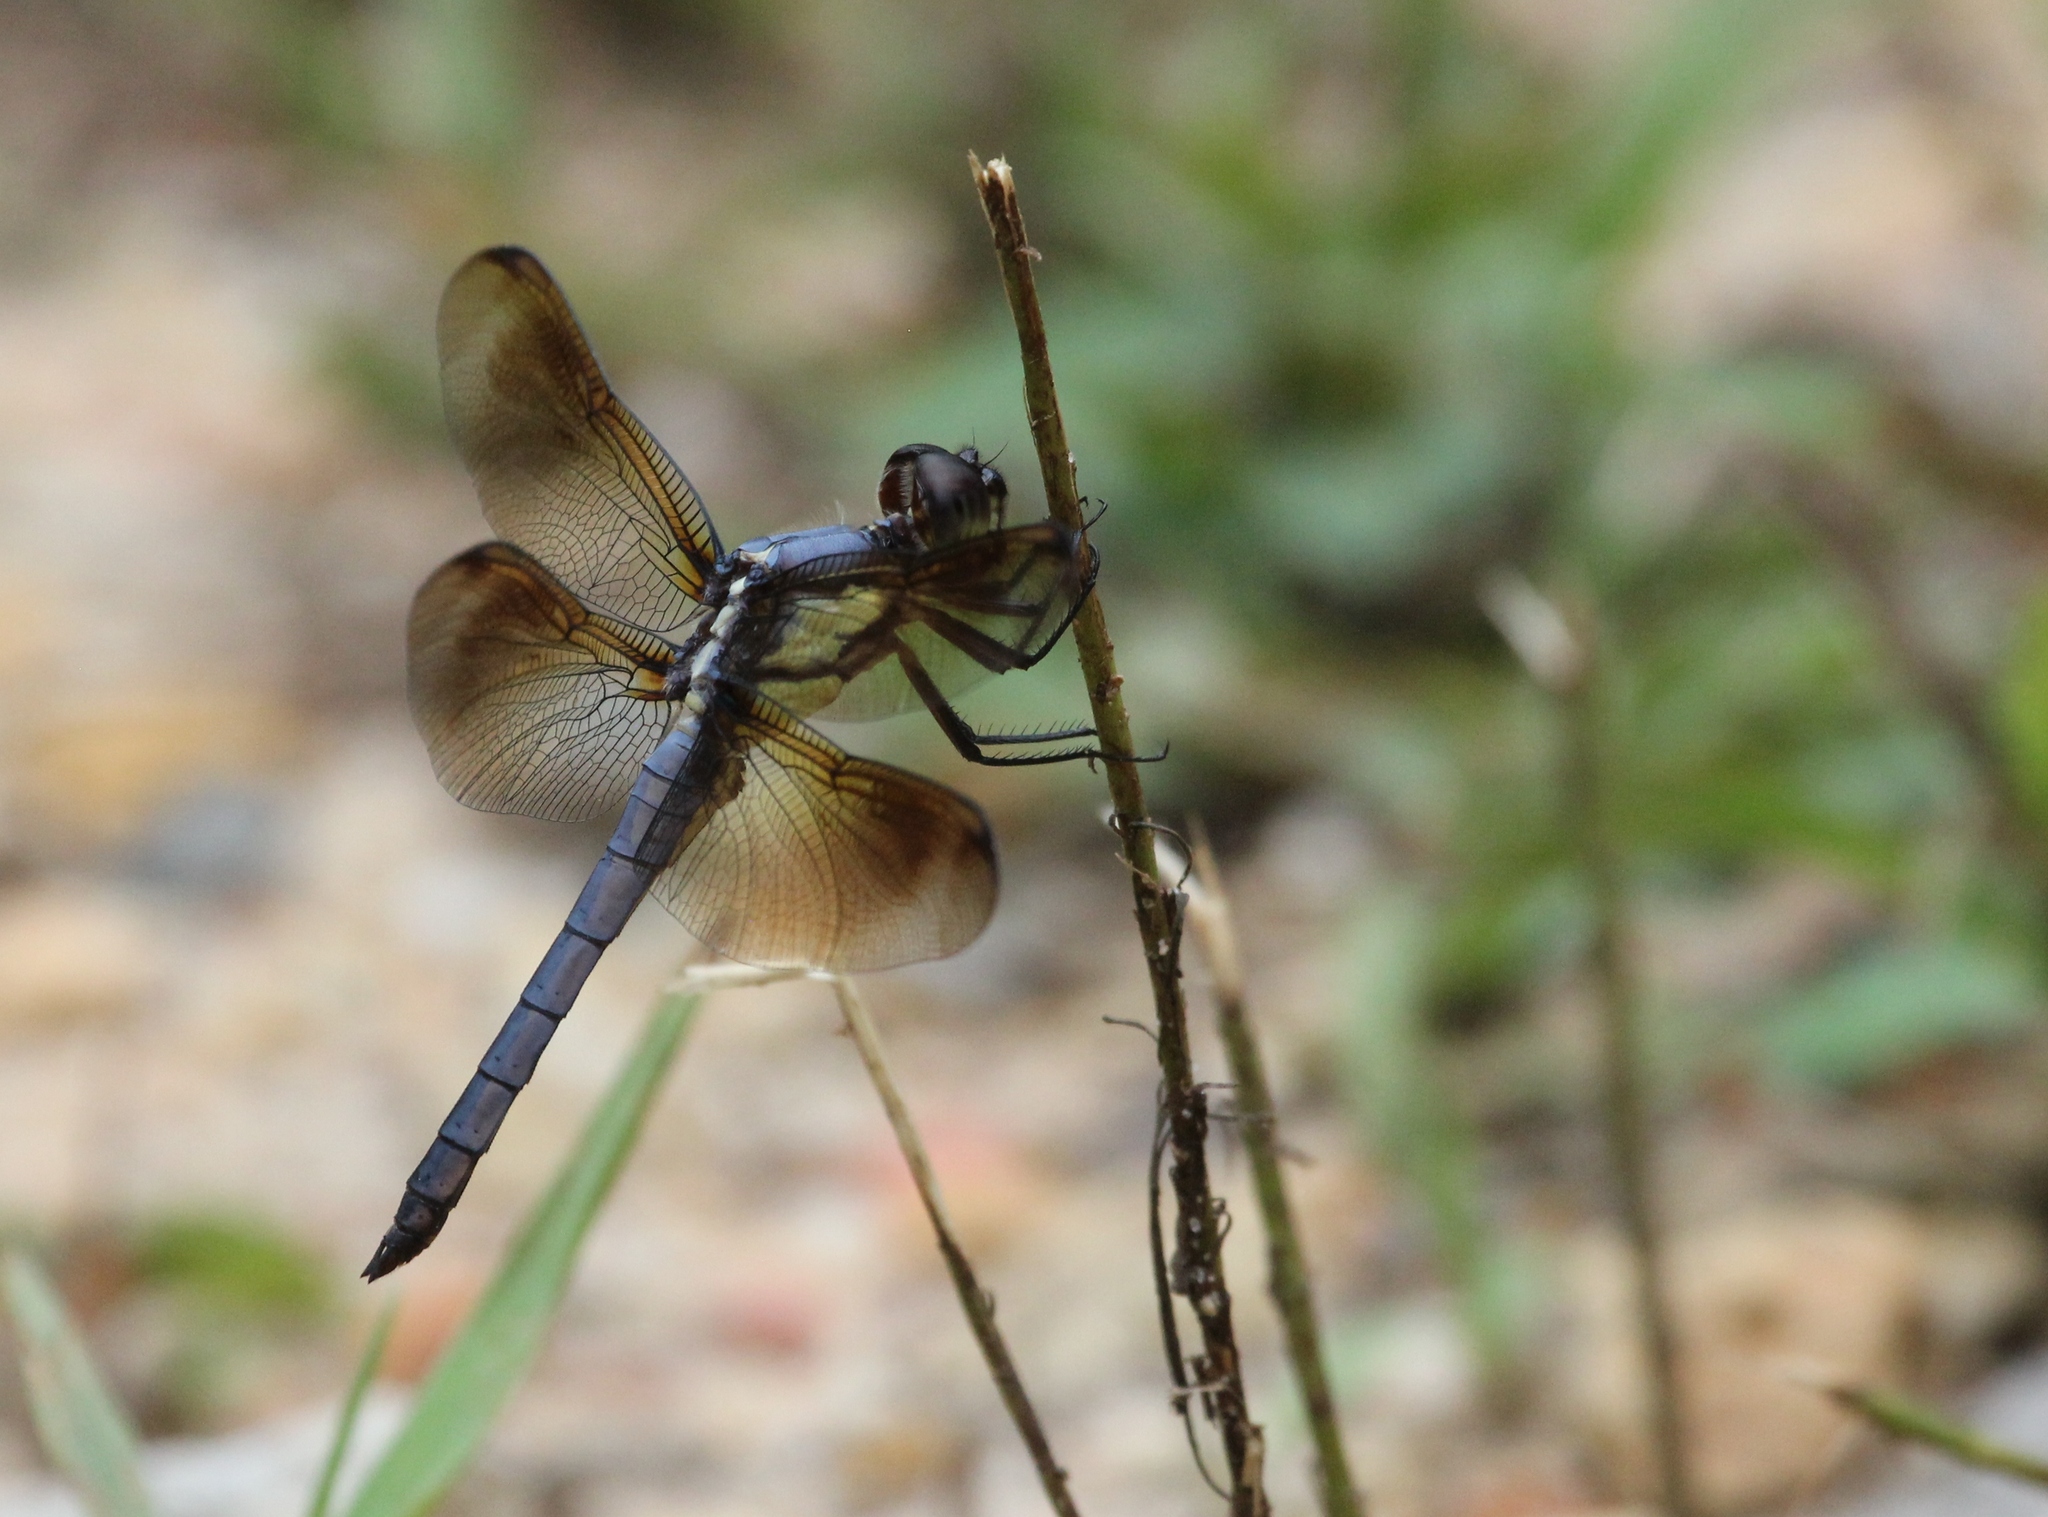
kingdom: Animalia
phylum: Arthropoda
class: Insecta
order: Odonata
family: Libellulidae
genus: Libellula
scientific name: Libellula flavida
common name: Yellow-sided skimmer
